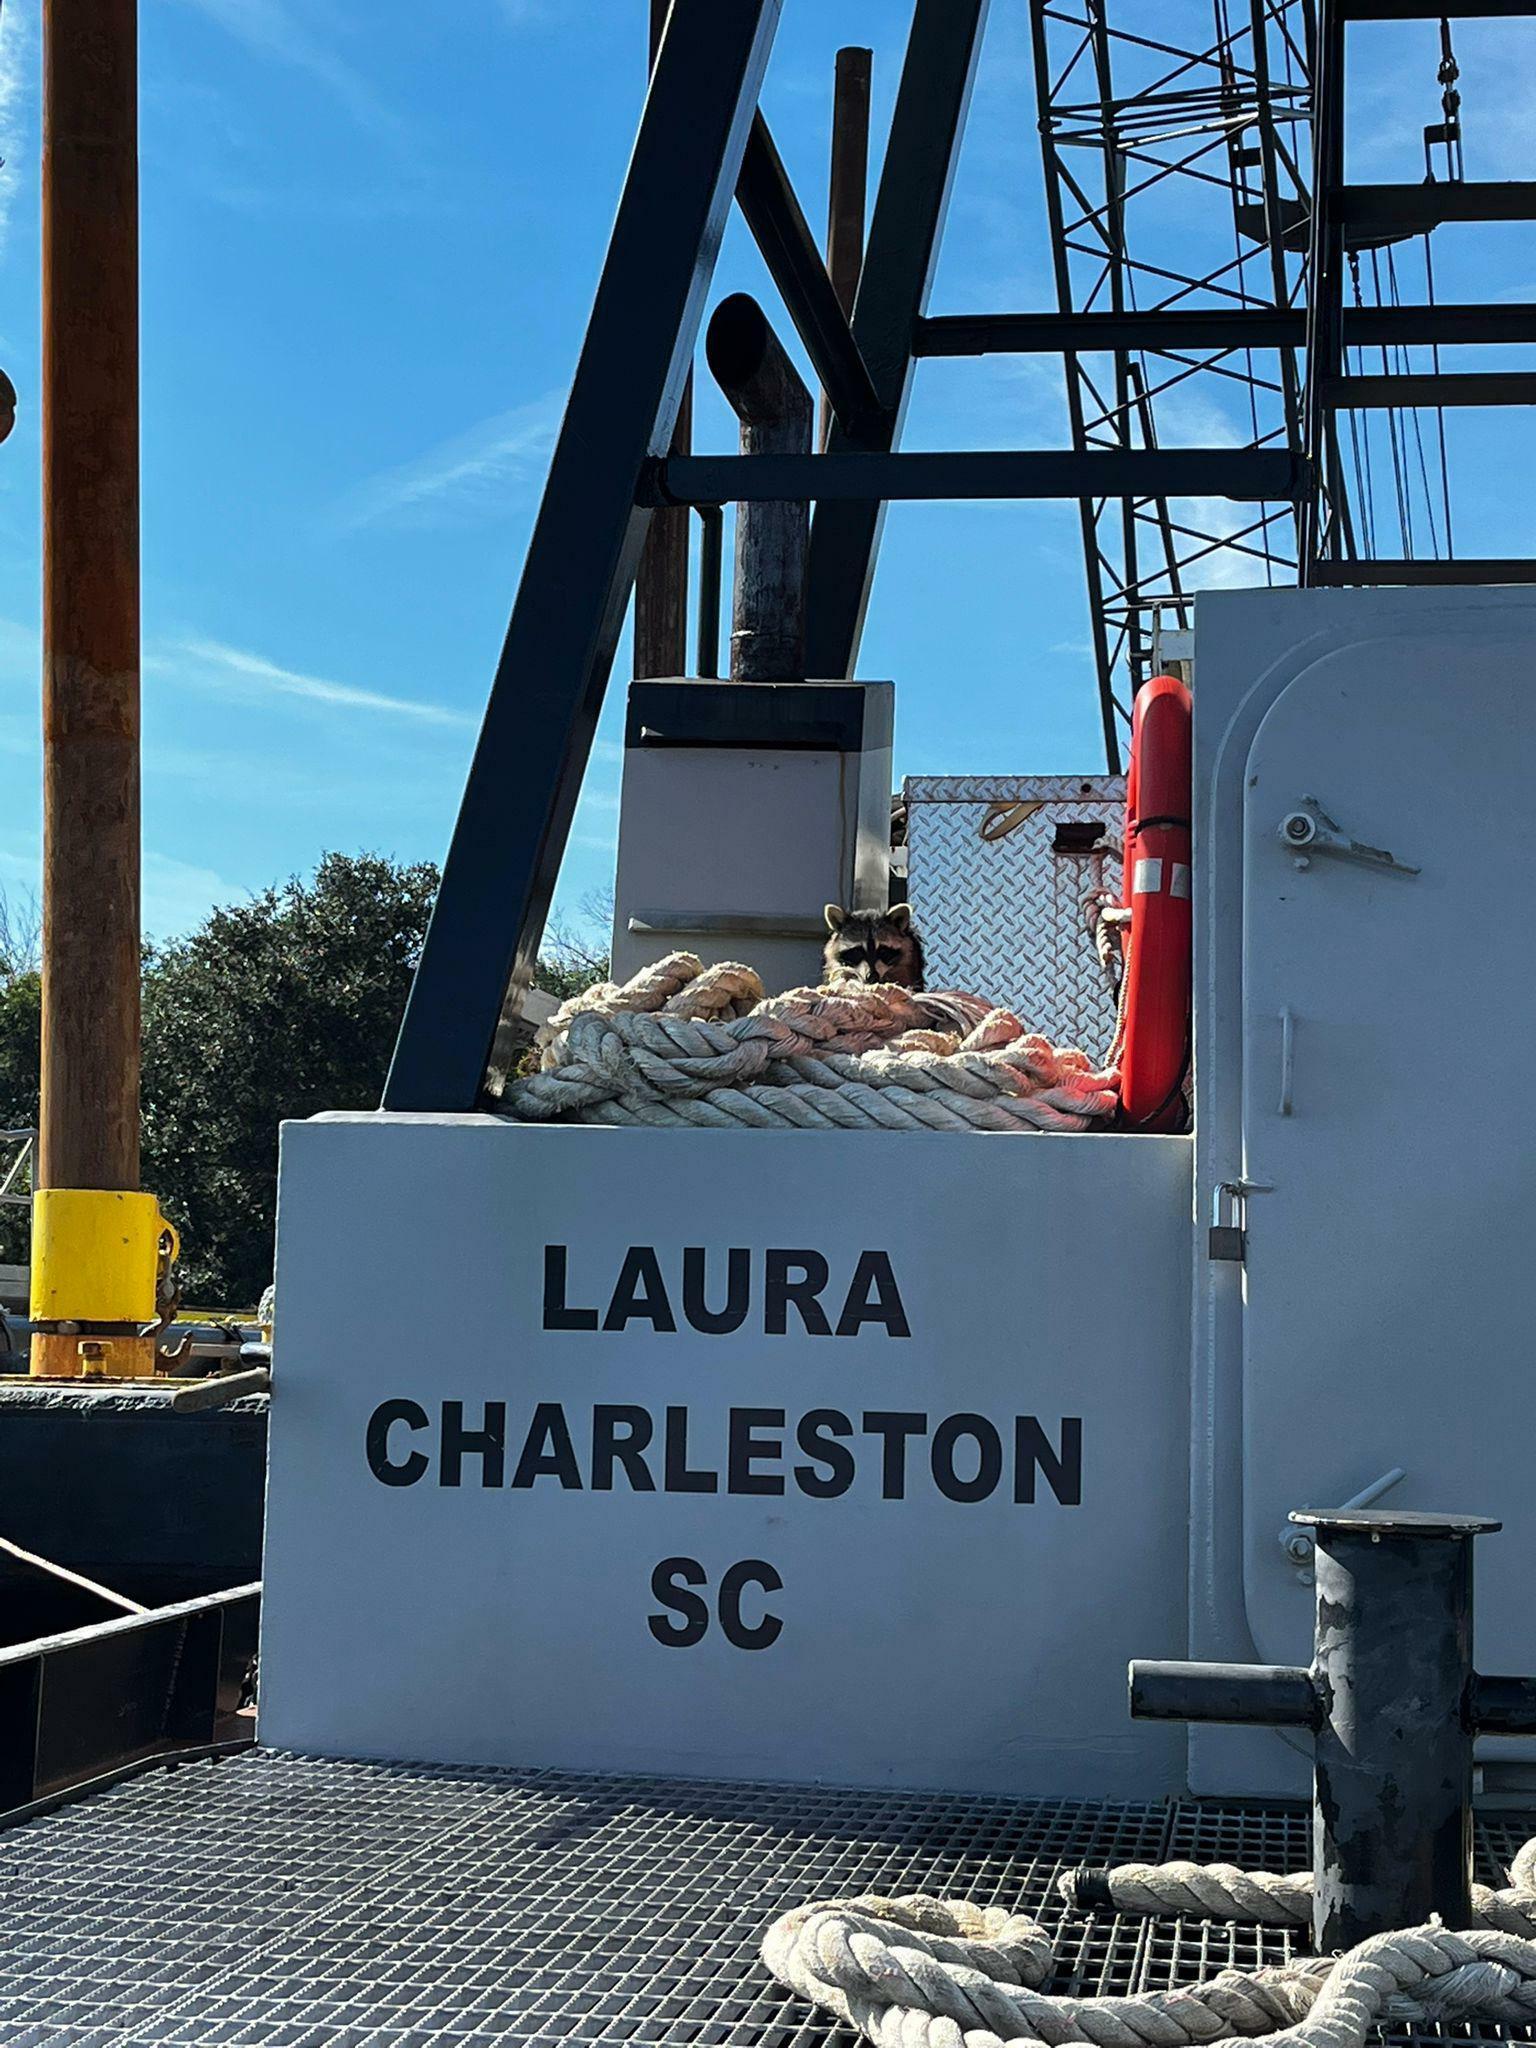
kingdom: Animalia
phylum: Chordata
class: Mammalia
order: Carnivora
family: Procyonidae
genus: Procyon
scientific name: Procyon lotor
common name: Raccoon
